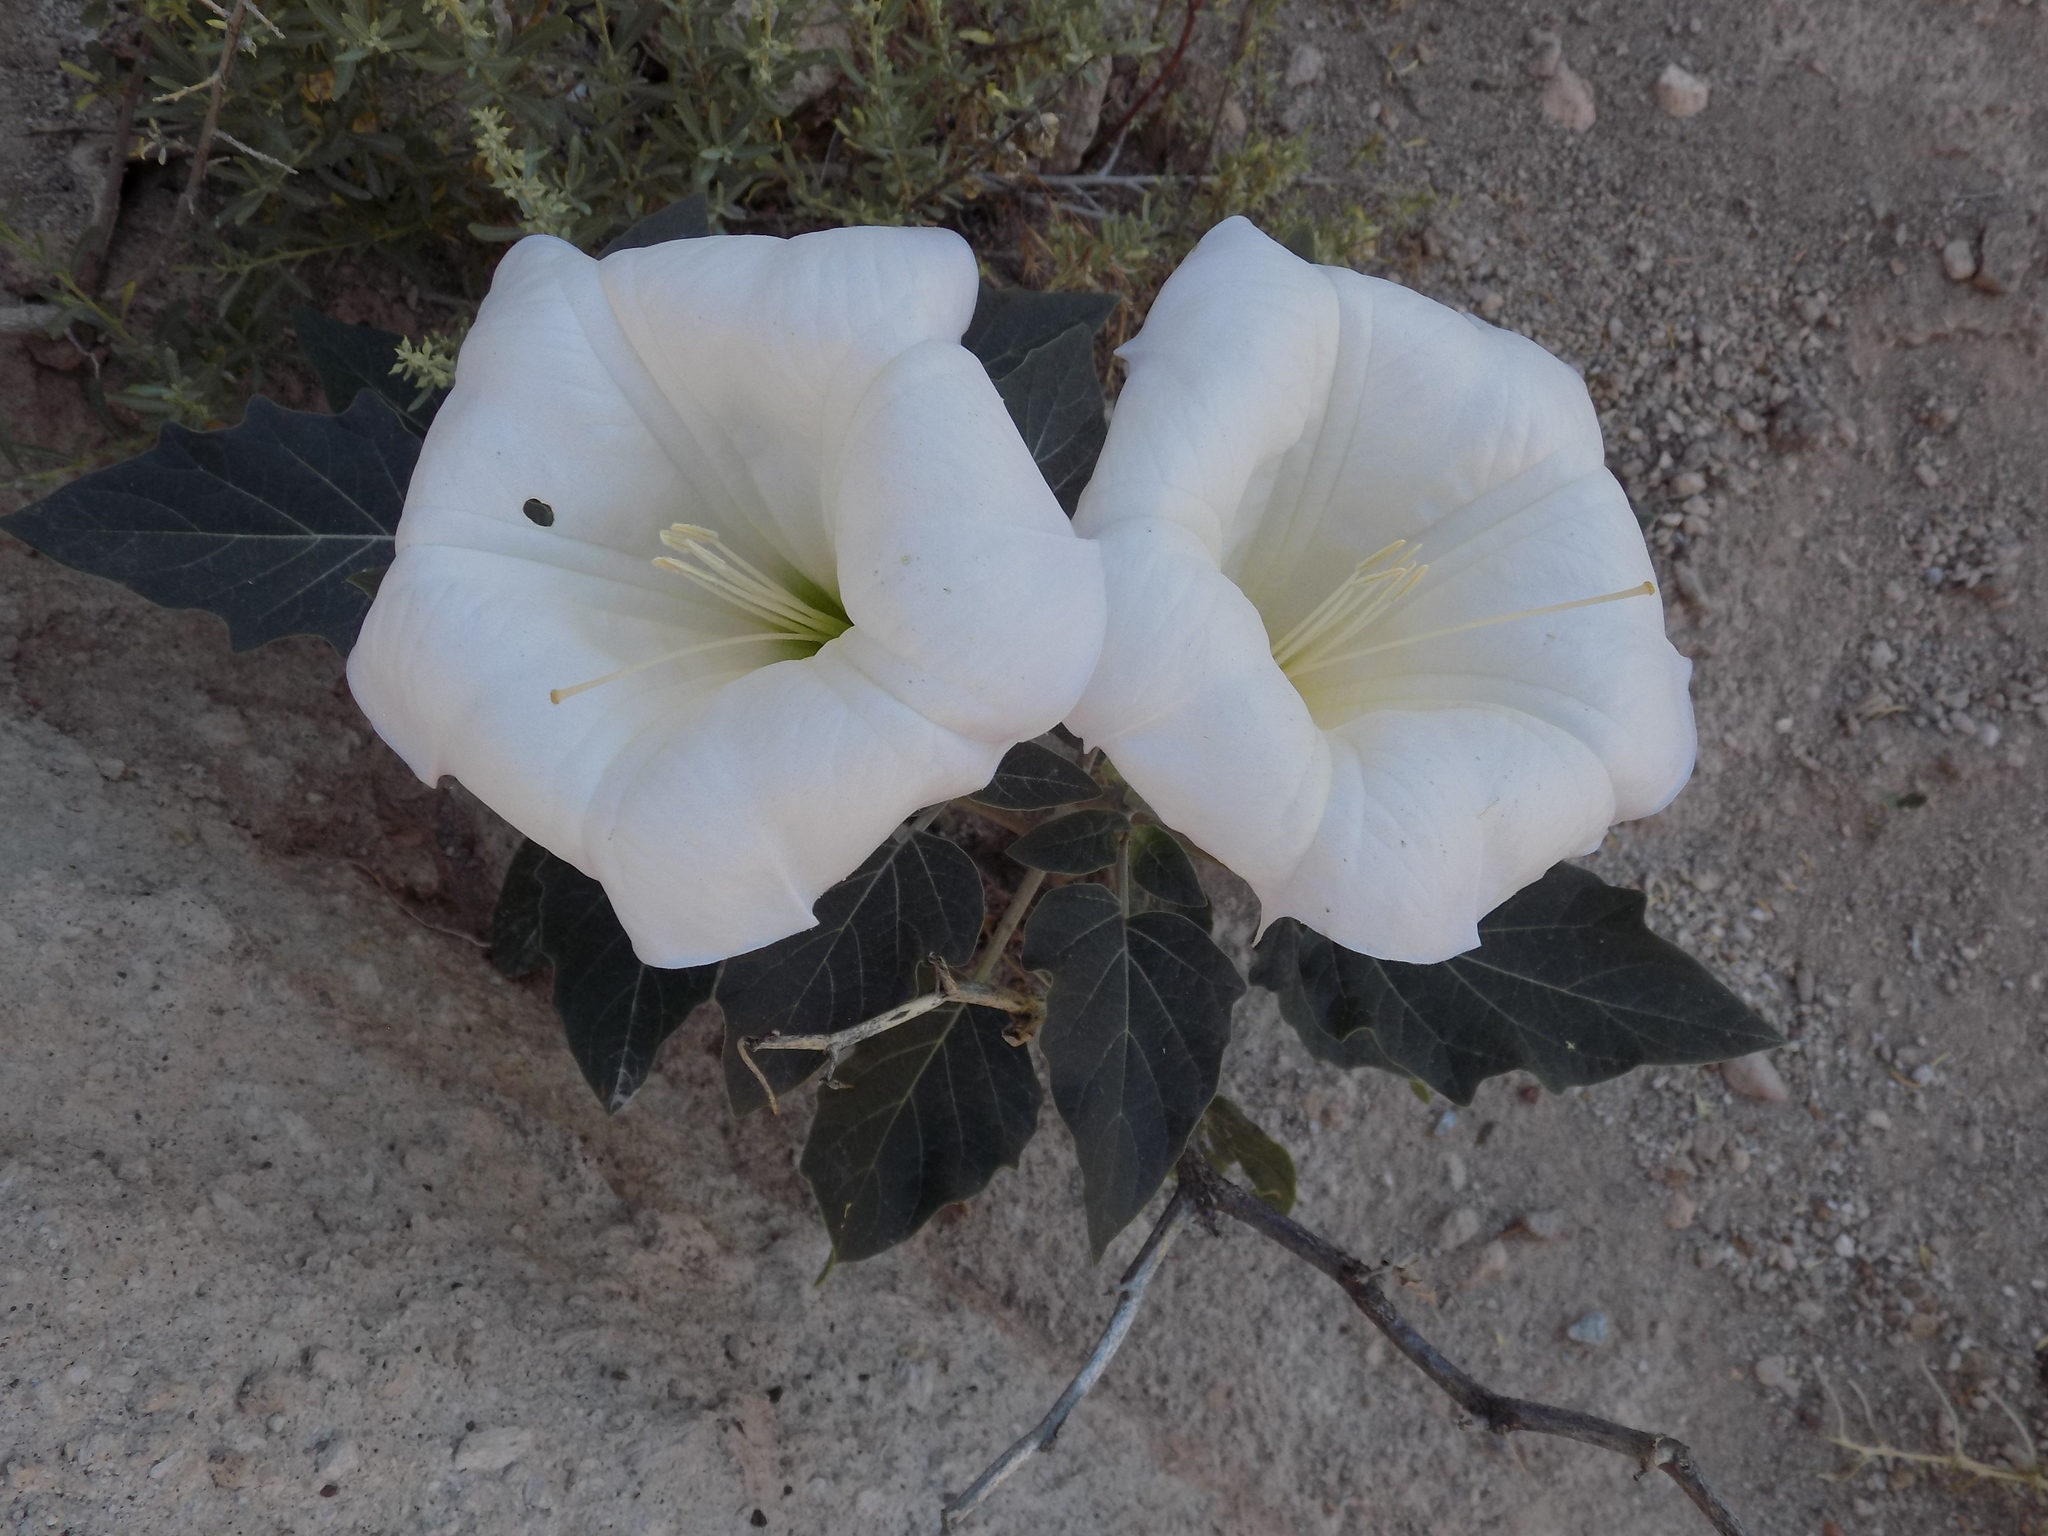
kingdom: Plantae
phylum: Tracheophyta
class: Magnoliopsida
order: Solanales
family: Solanaceae
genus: Datura
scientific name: Datura wrightii
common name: Sacred thorn-apple
